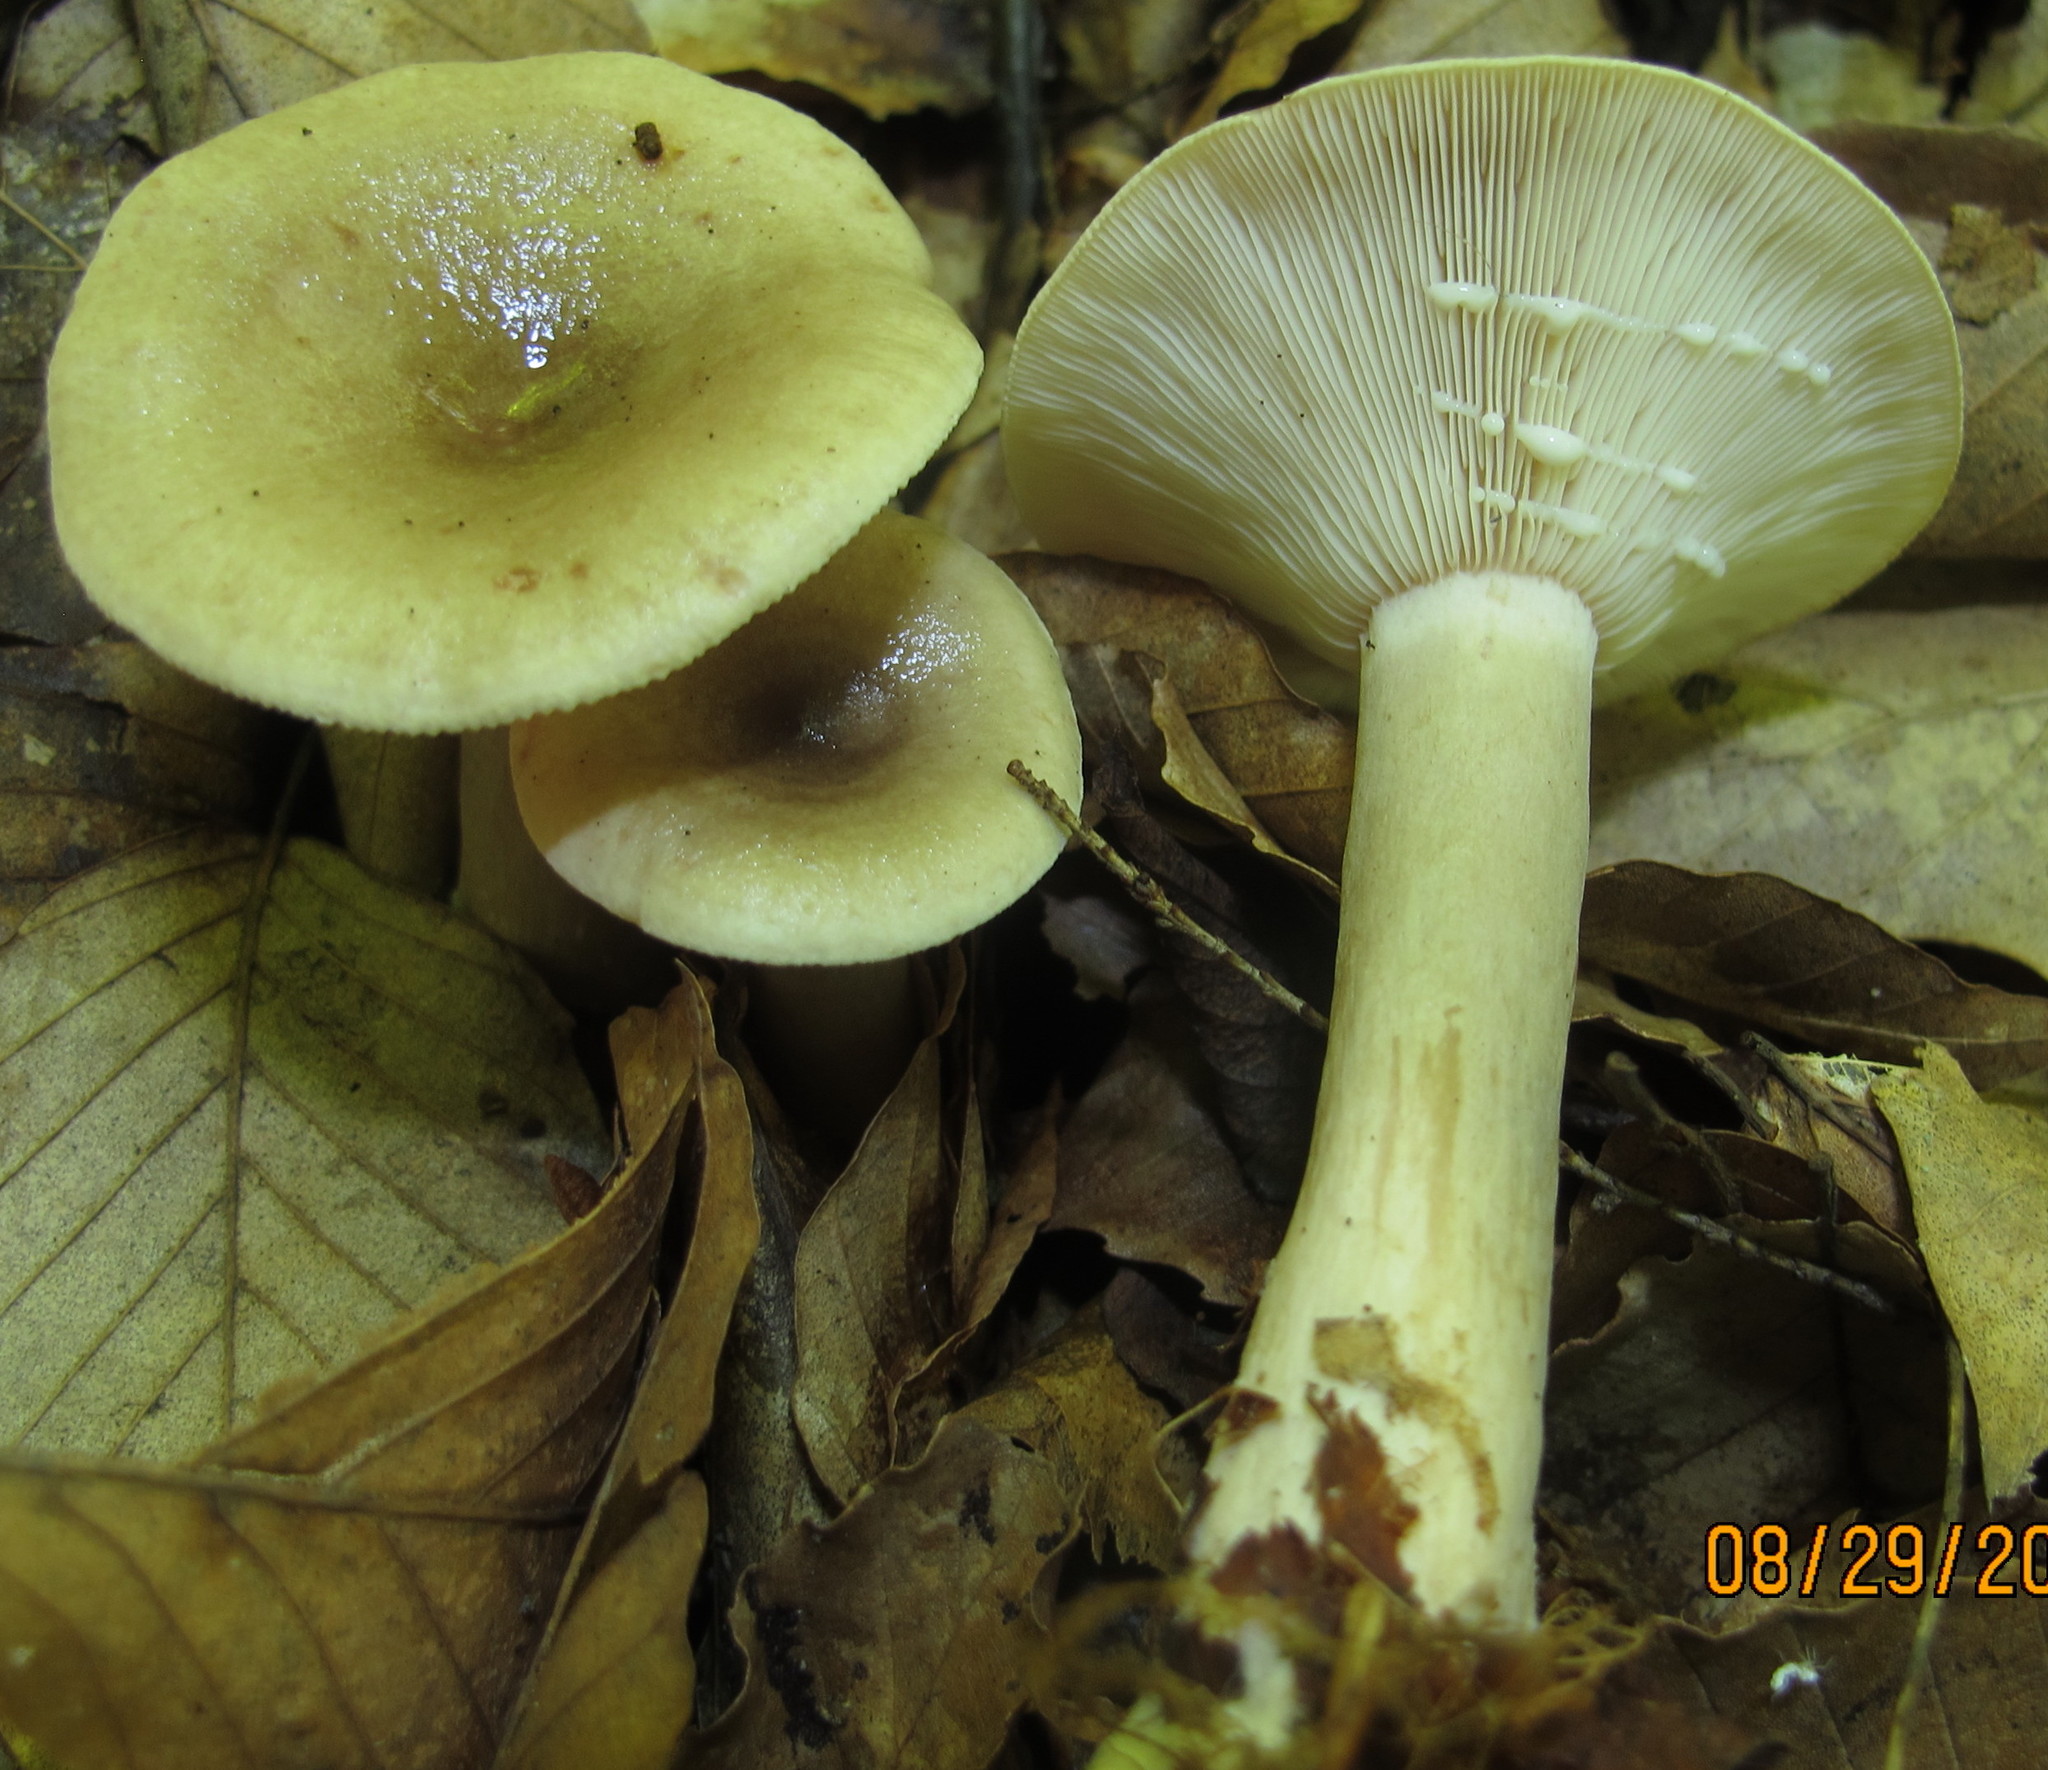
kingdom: Fungi
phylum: Basidiomycota
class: Agaricomycetes
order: Russulales
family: Russulaceae
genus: Lactarius
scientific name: Lactarius cinereus
